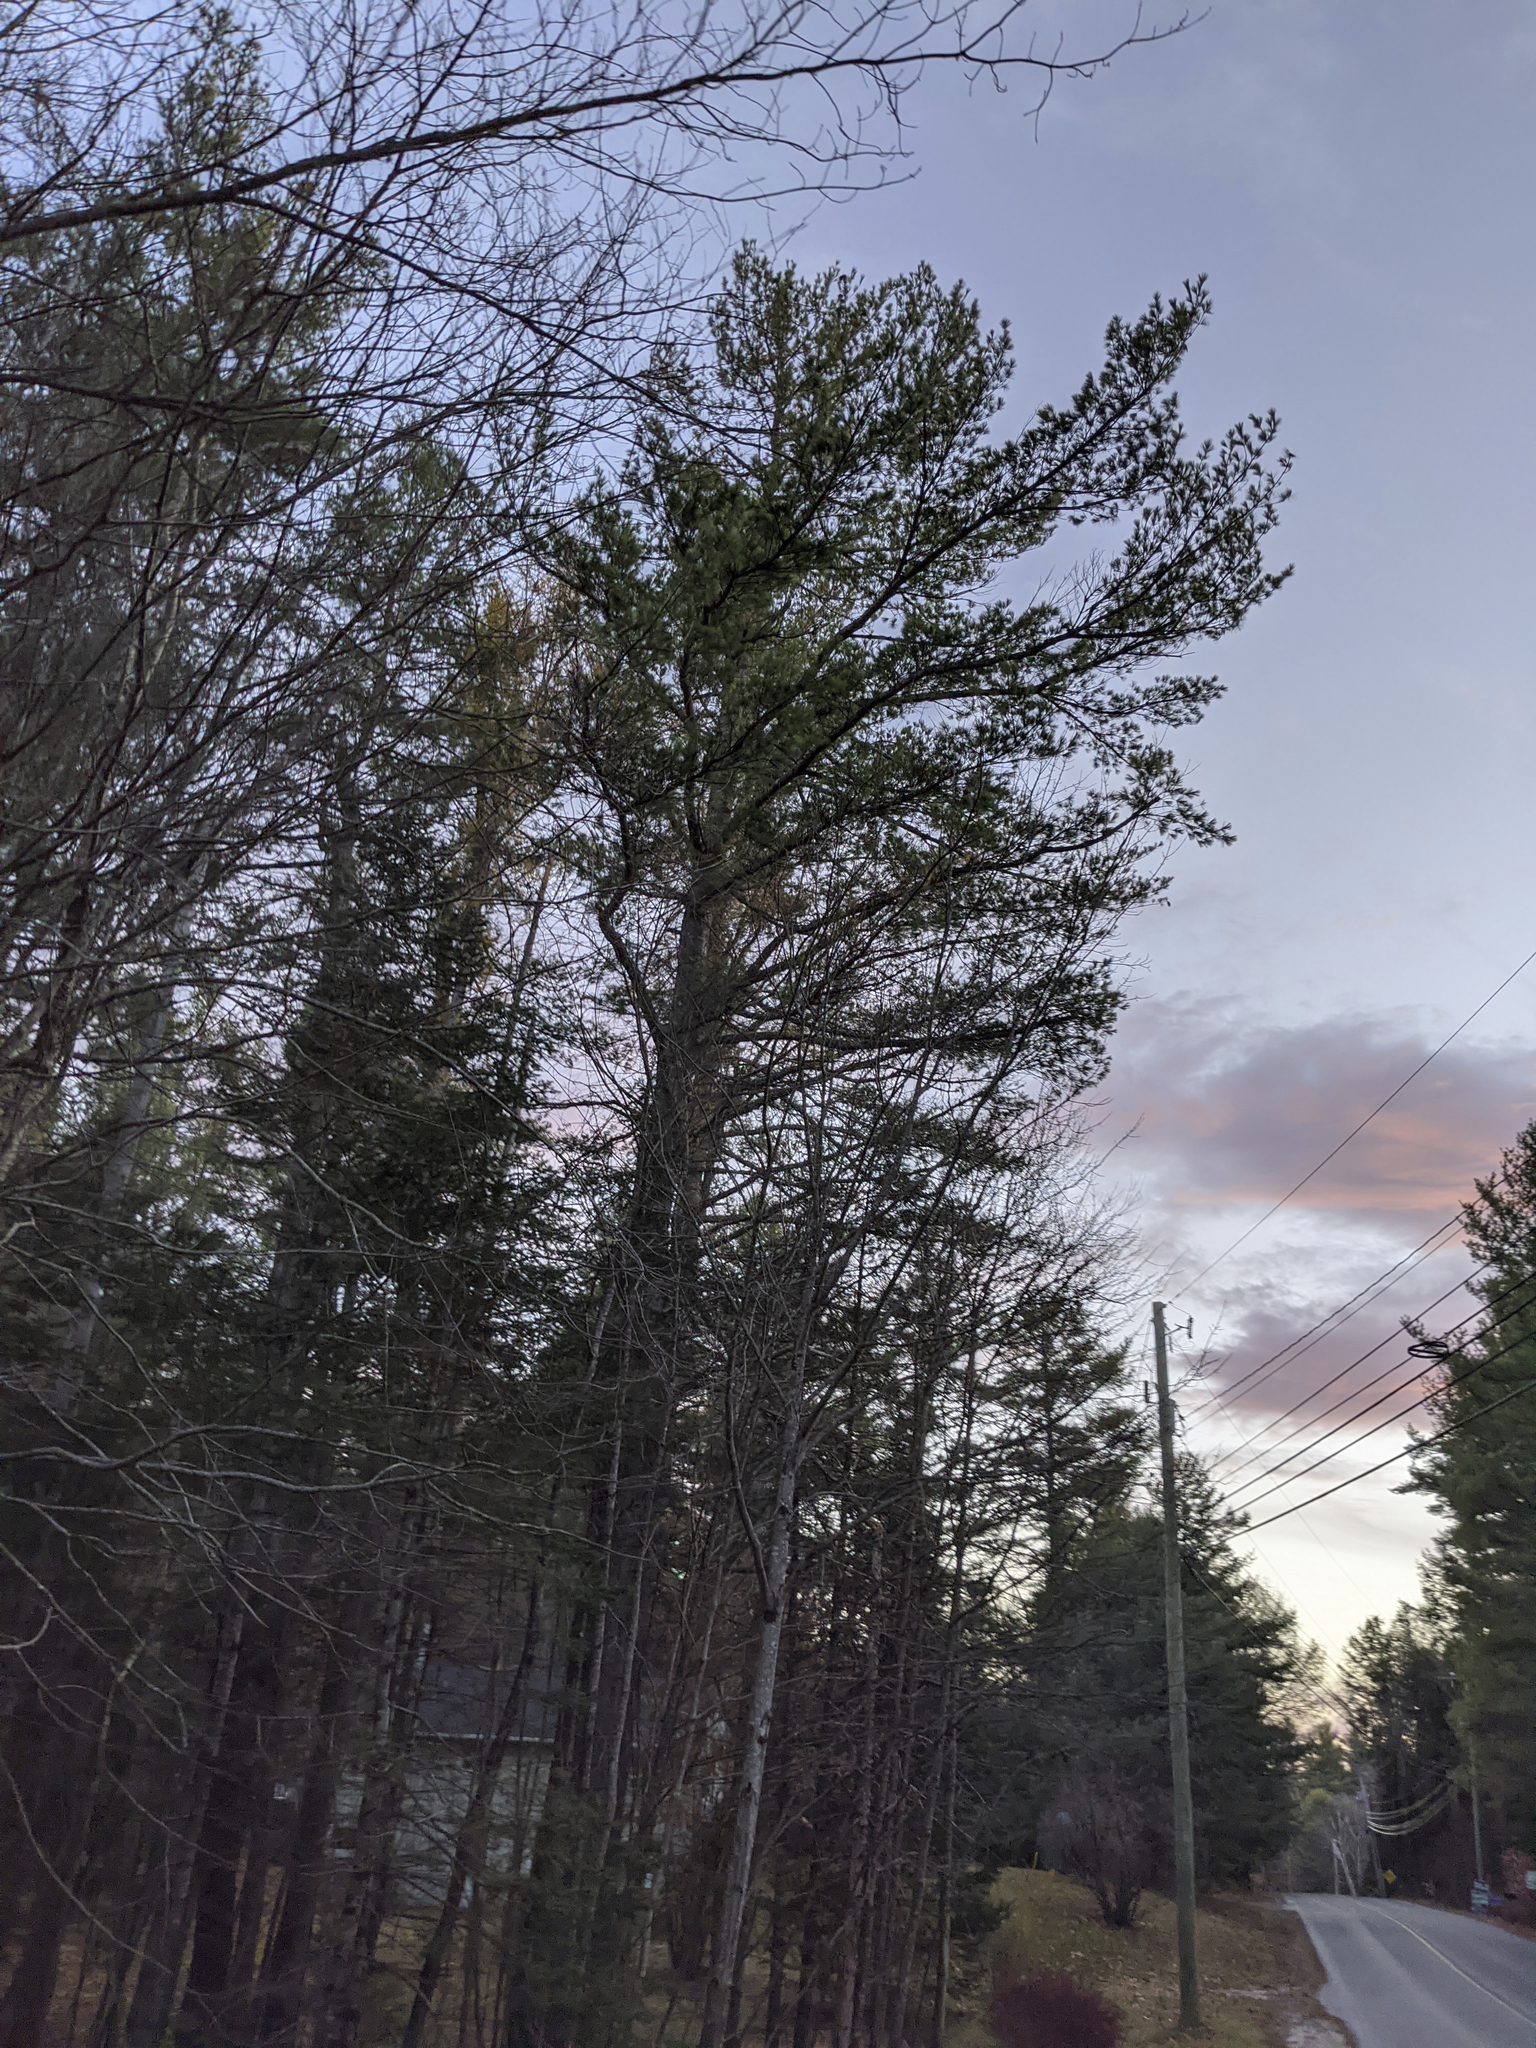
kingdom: Plantae
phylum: Tracheophyta
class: Pinopsida
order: Pinales
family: Pinaceae
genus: Pinus
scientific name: Pinus strobus
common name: Weymouth pine
